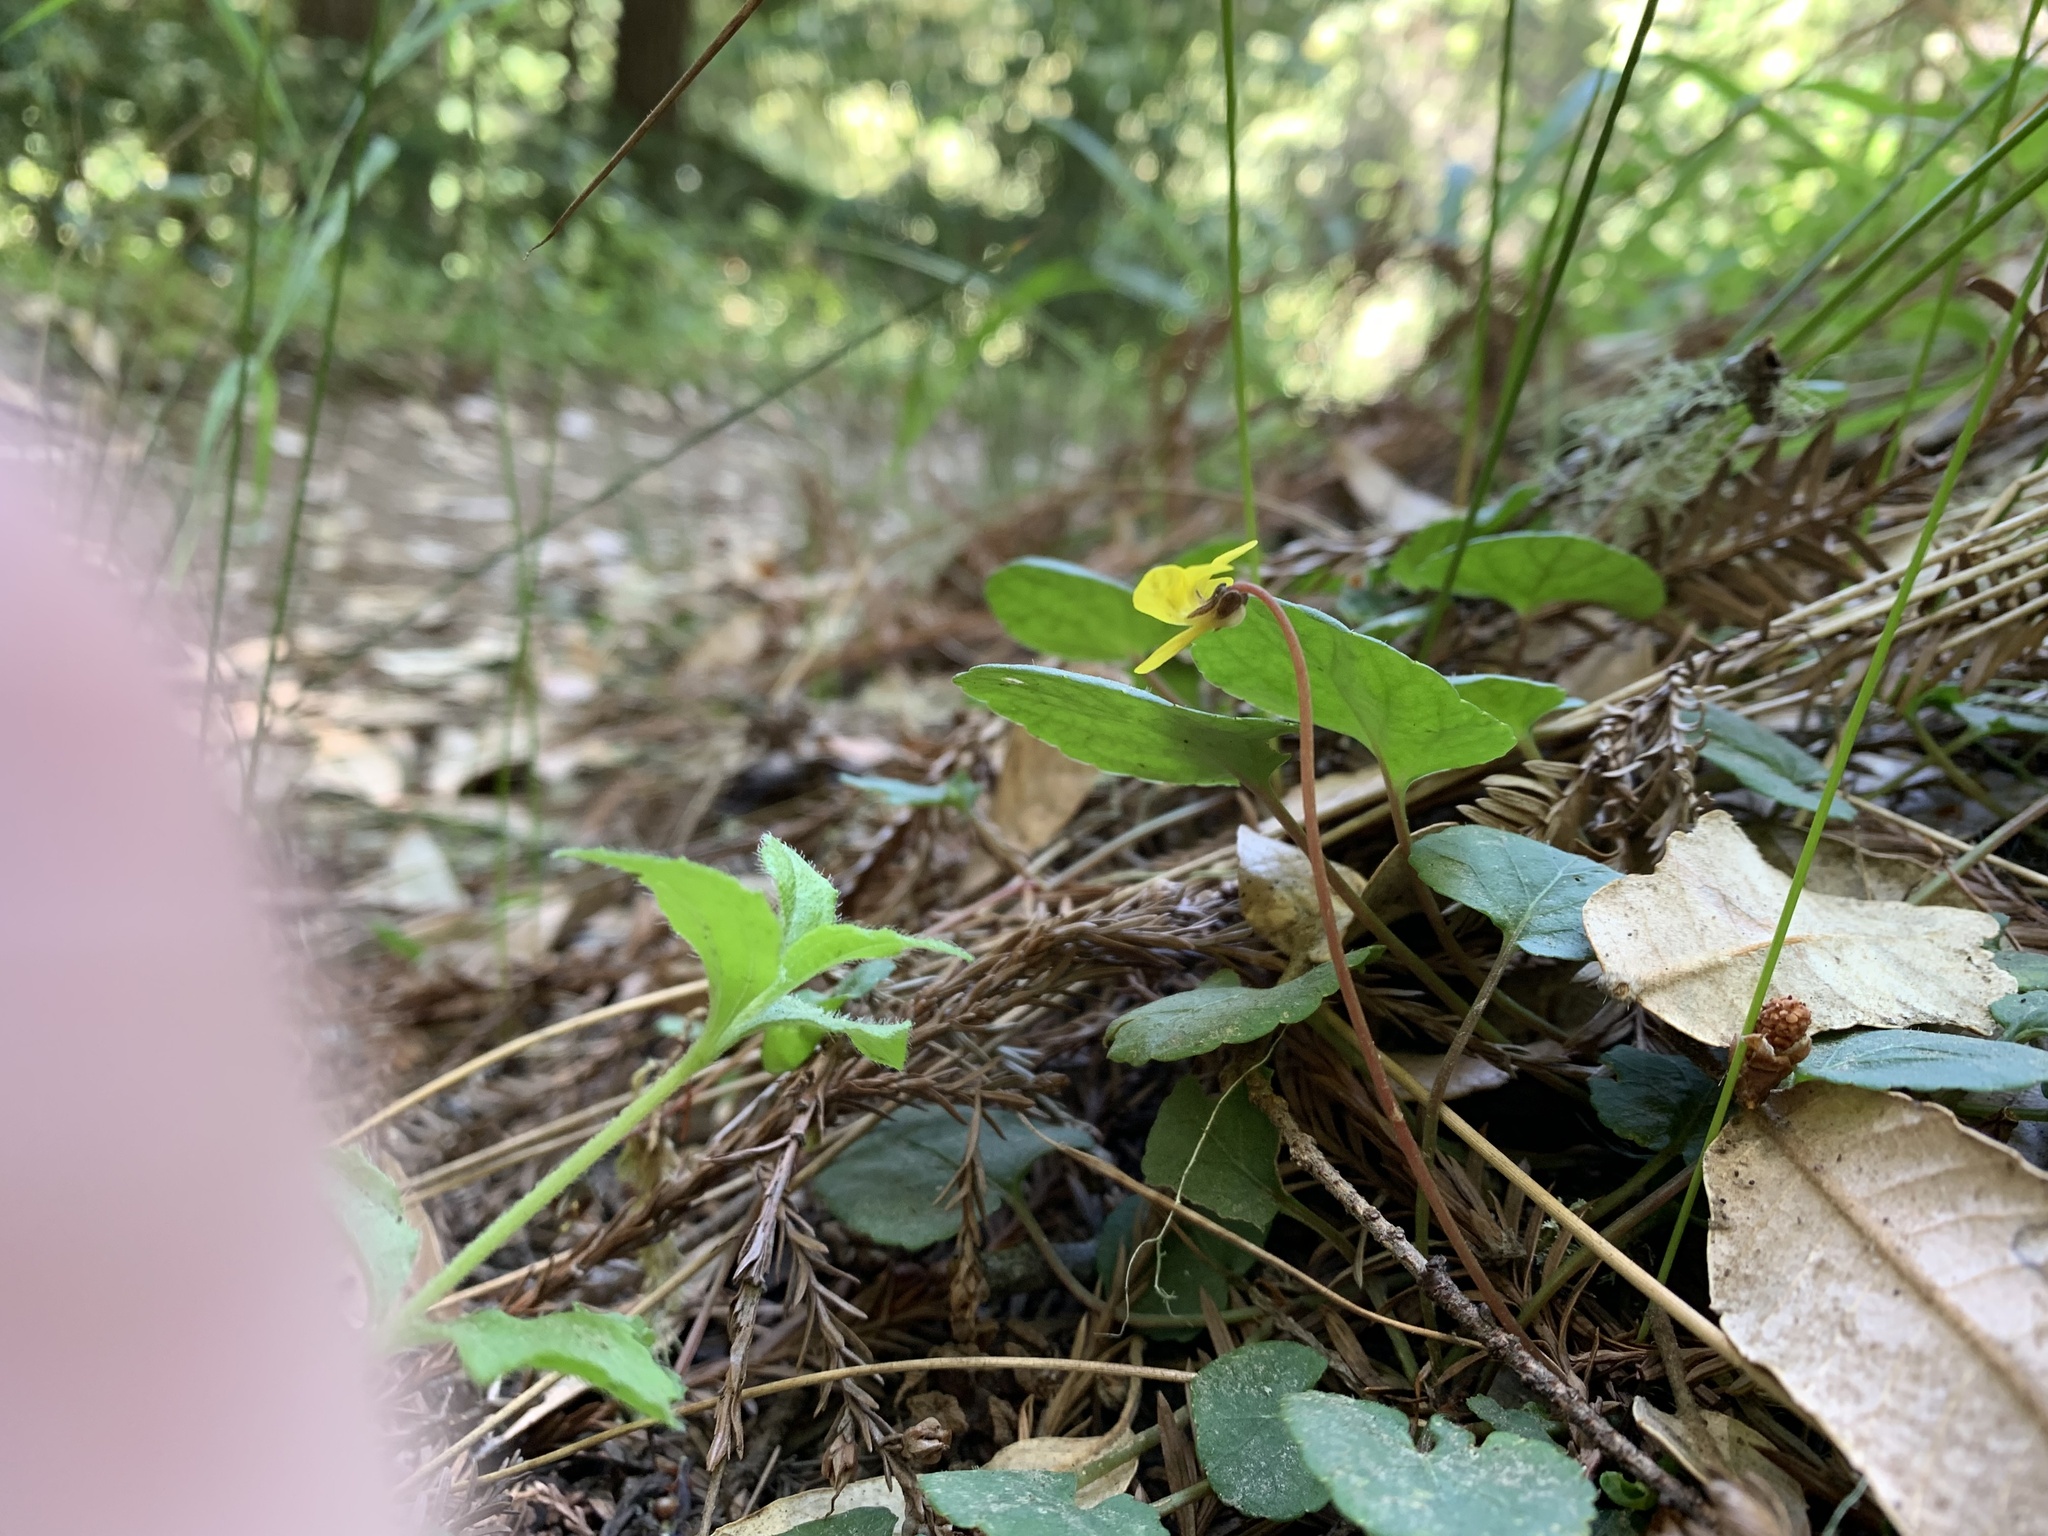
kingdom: Plantae
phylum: Tracheophyta
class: Magnoliopsida
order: Malpighiales
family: Violaceae
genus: Viola
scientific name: Viola sempervirens
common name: Evergreen violet
